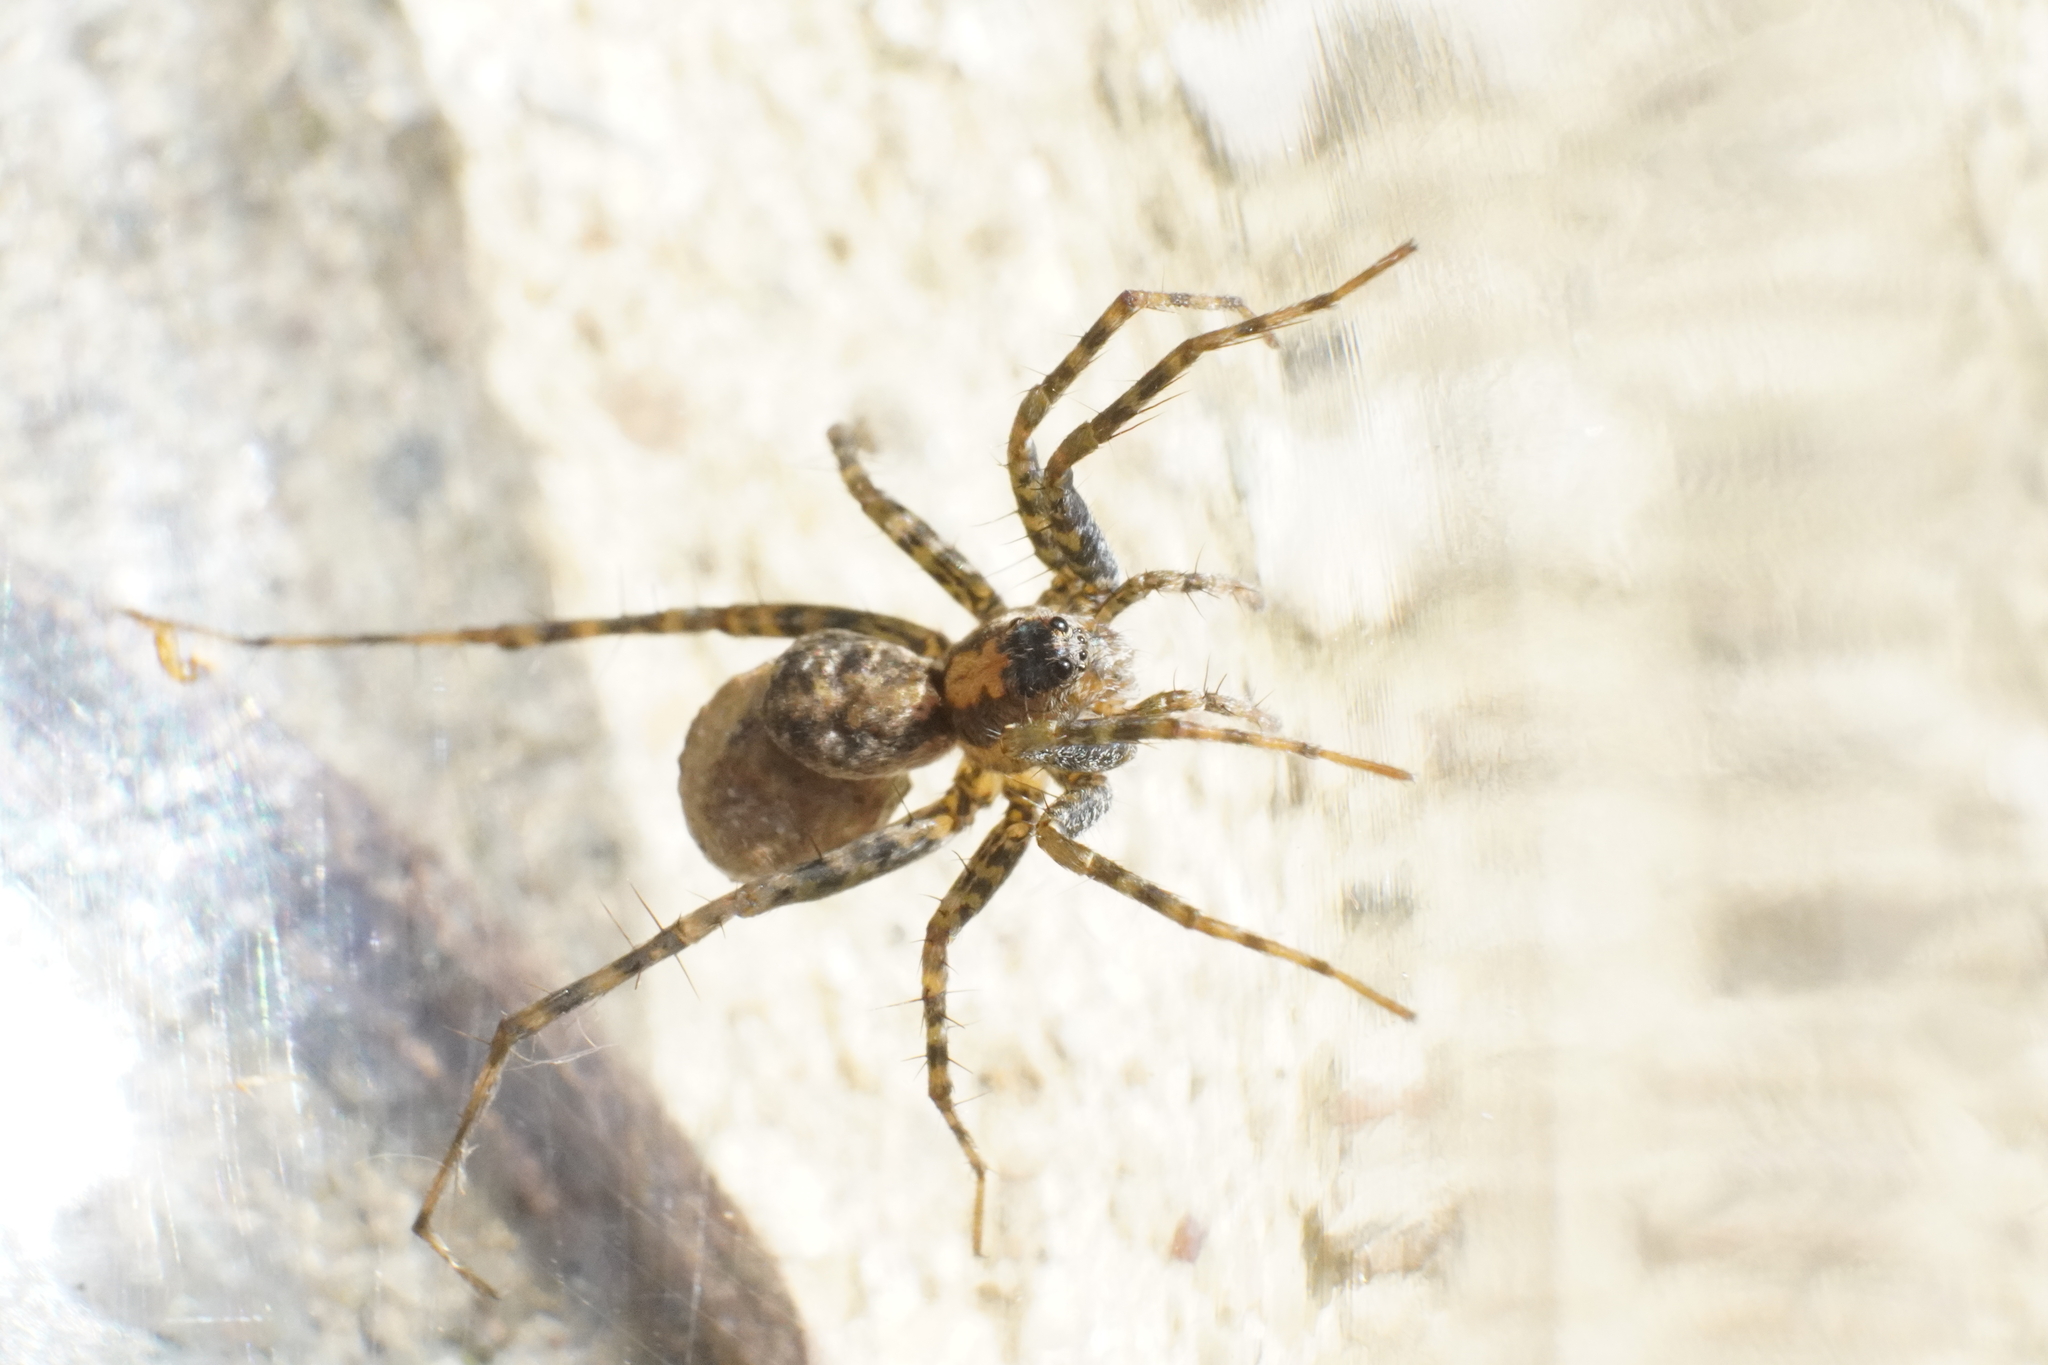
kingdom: Animalia
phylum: Arthropoda
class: Arachnida
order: Araneae
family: Lycosidae
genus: Pardosa
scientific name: Pardosa milvina
